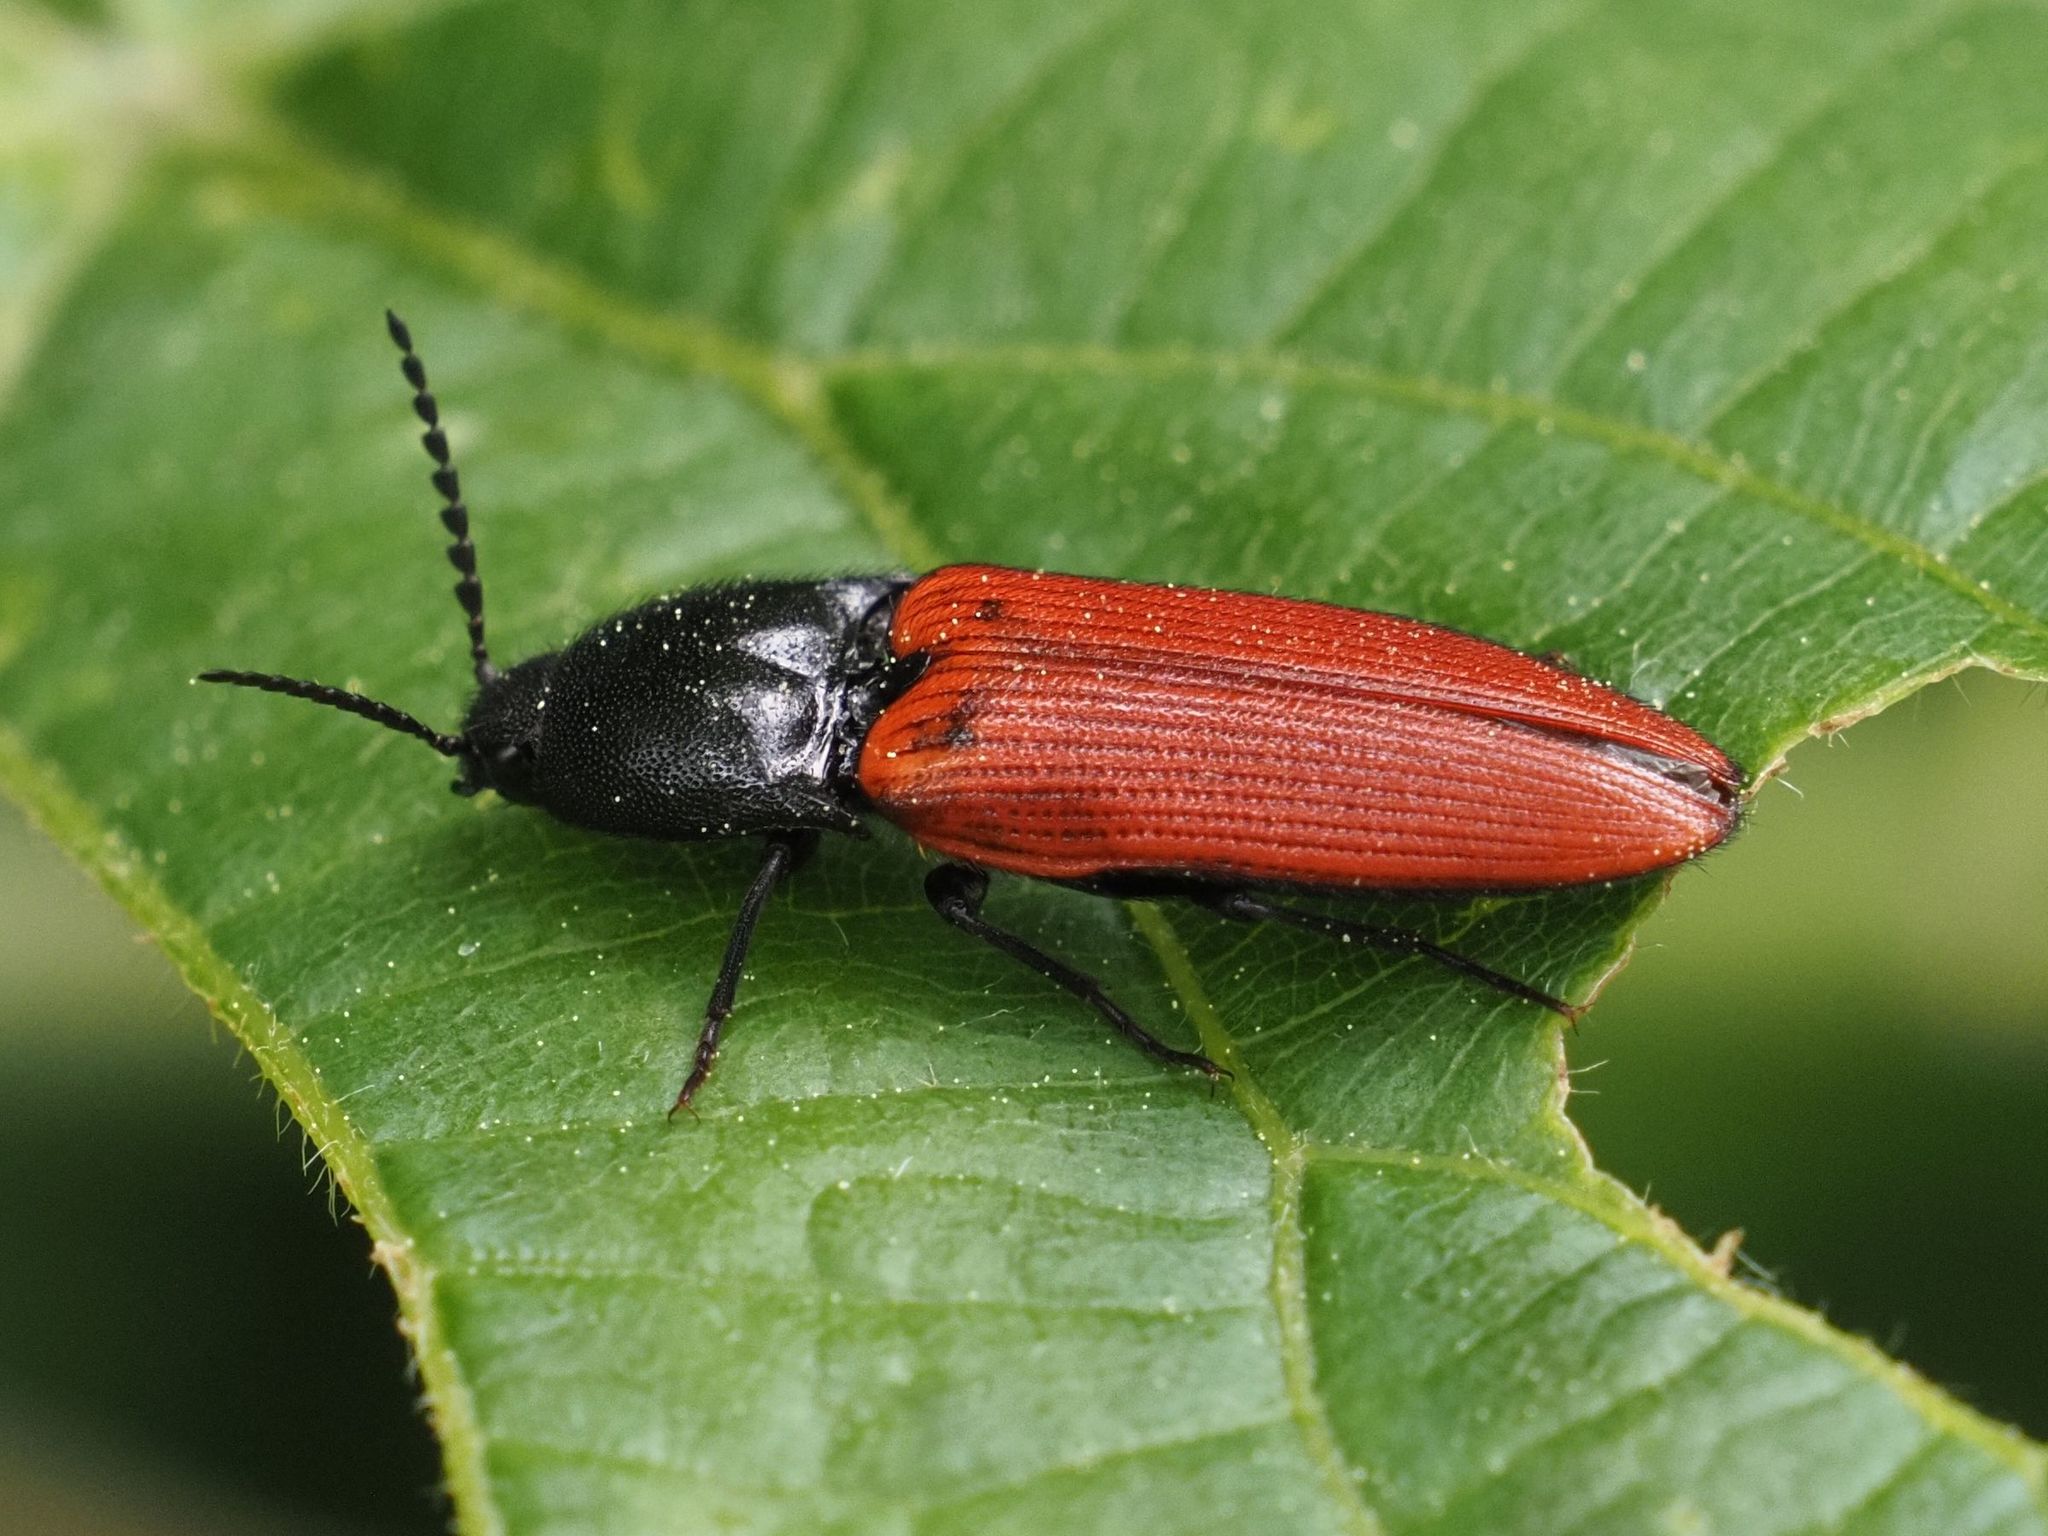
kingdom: Animalia
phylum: Arthropoda
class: Insecta
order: Coleoptera
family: Elateridae
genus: Ampedus
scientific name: Ampedus sanguineus
